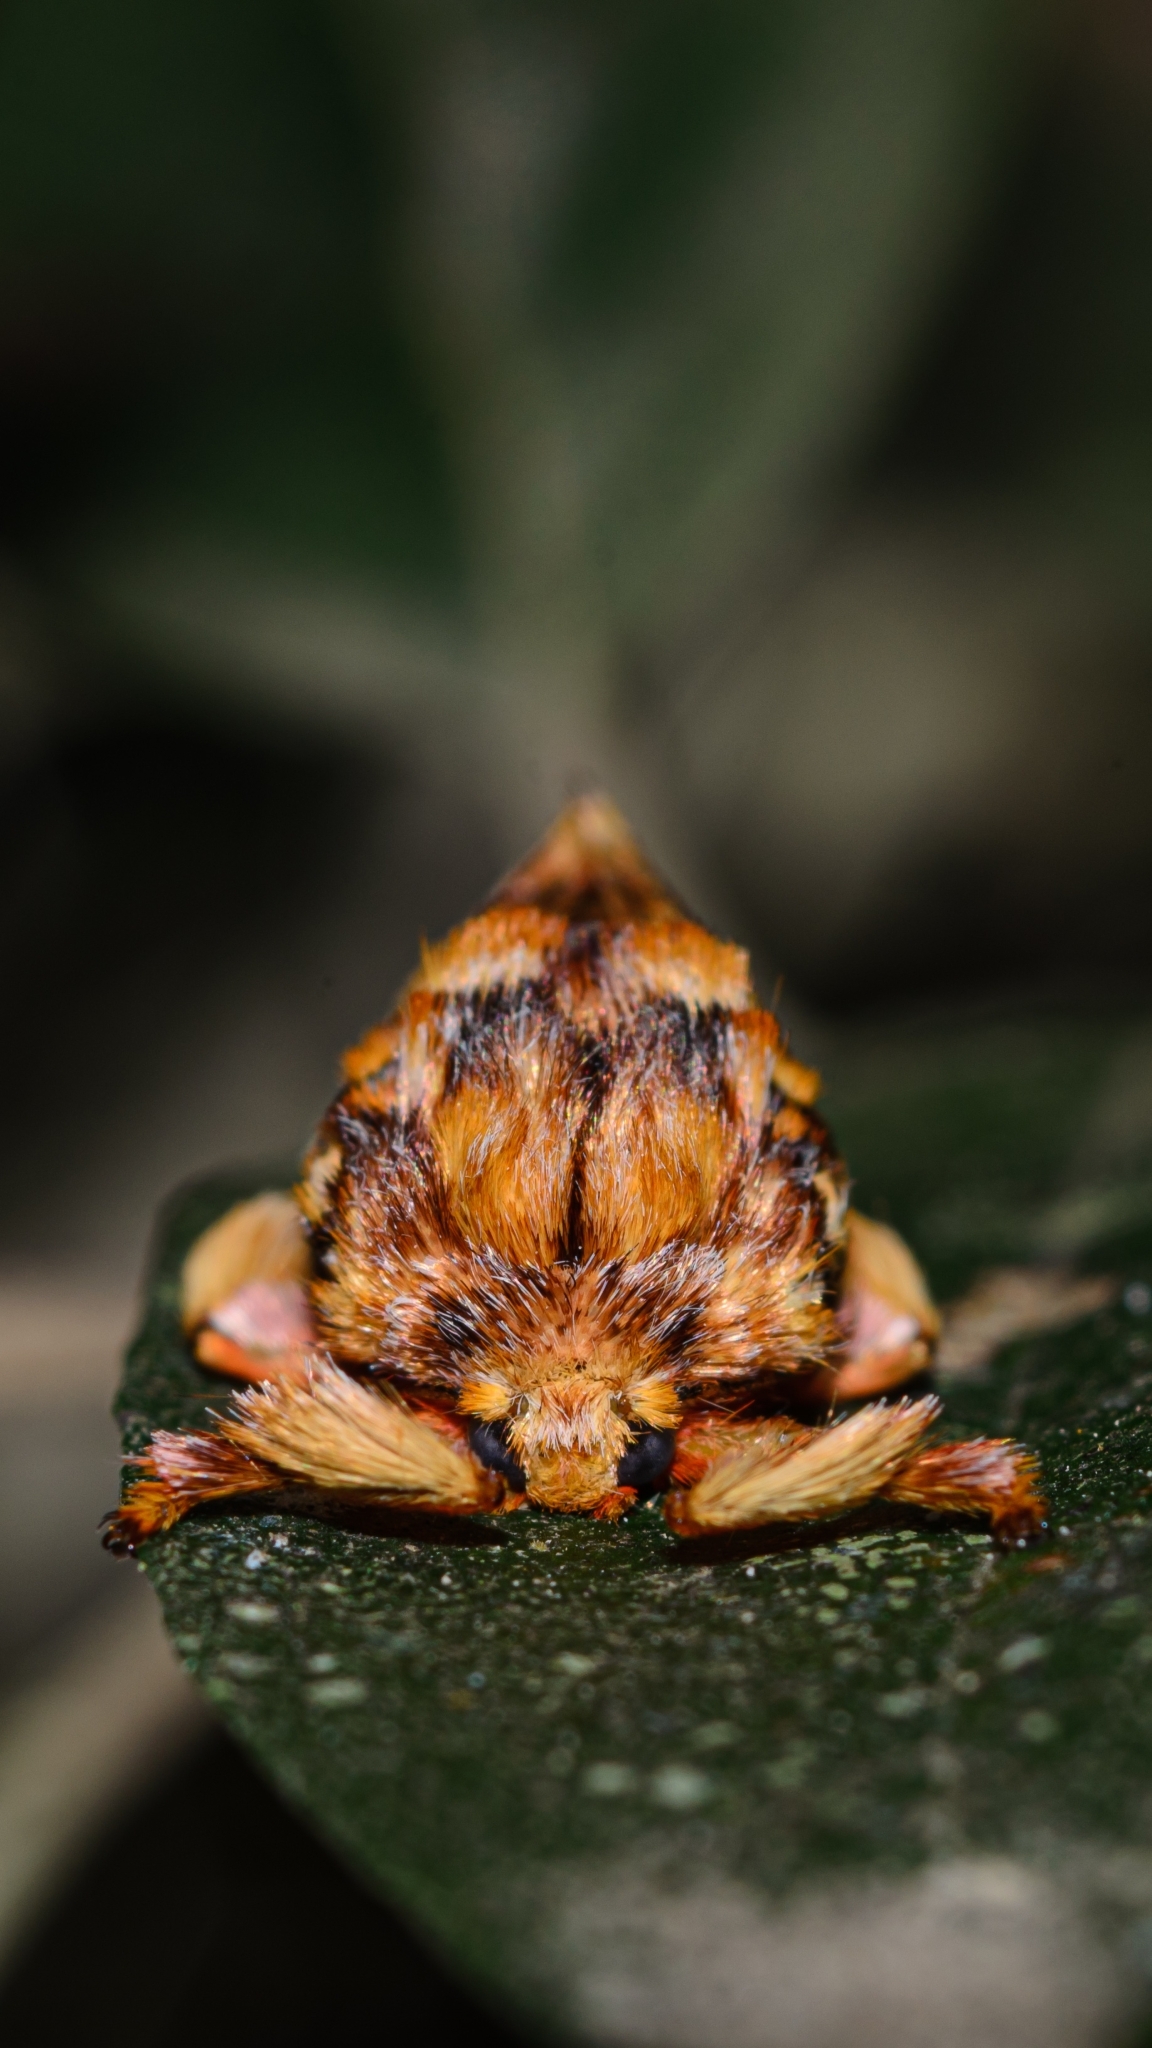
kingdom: Animalia
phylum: Arthropoda
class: Insecta
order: Lepidoptera
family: Limacodidae
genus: Phobetron
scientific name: Phobetron hipparchia
